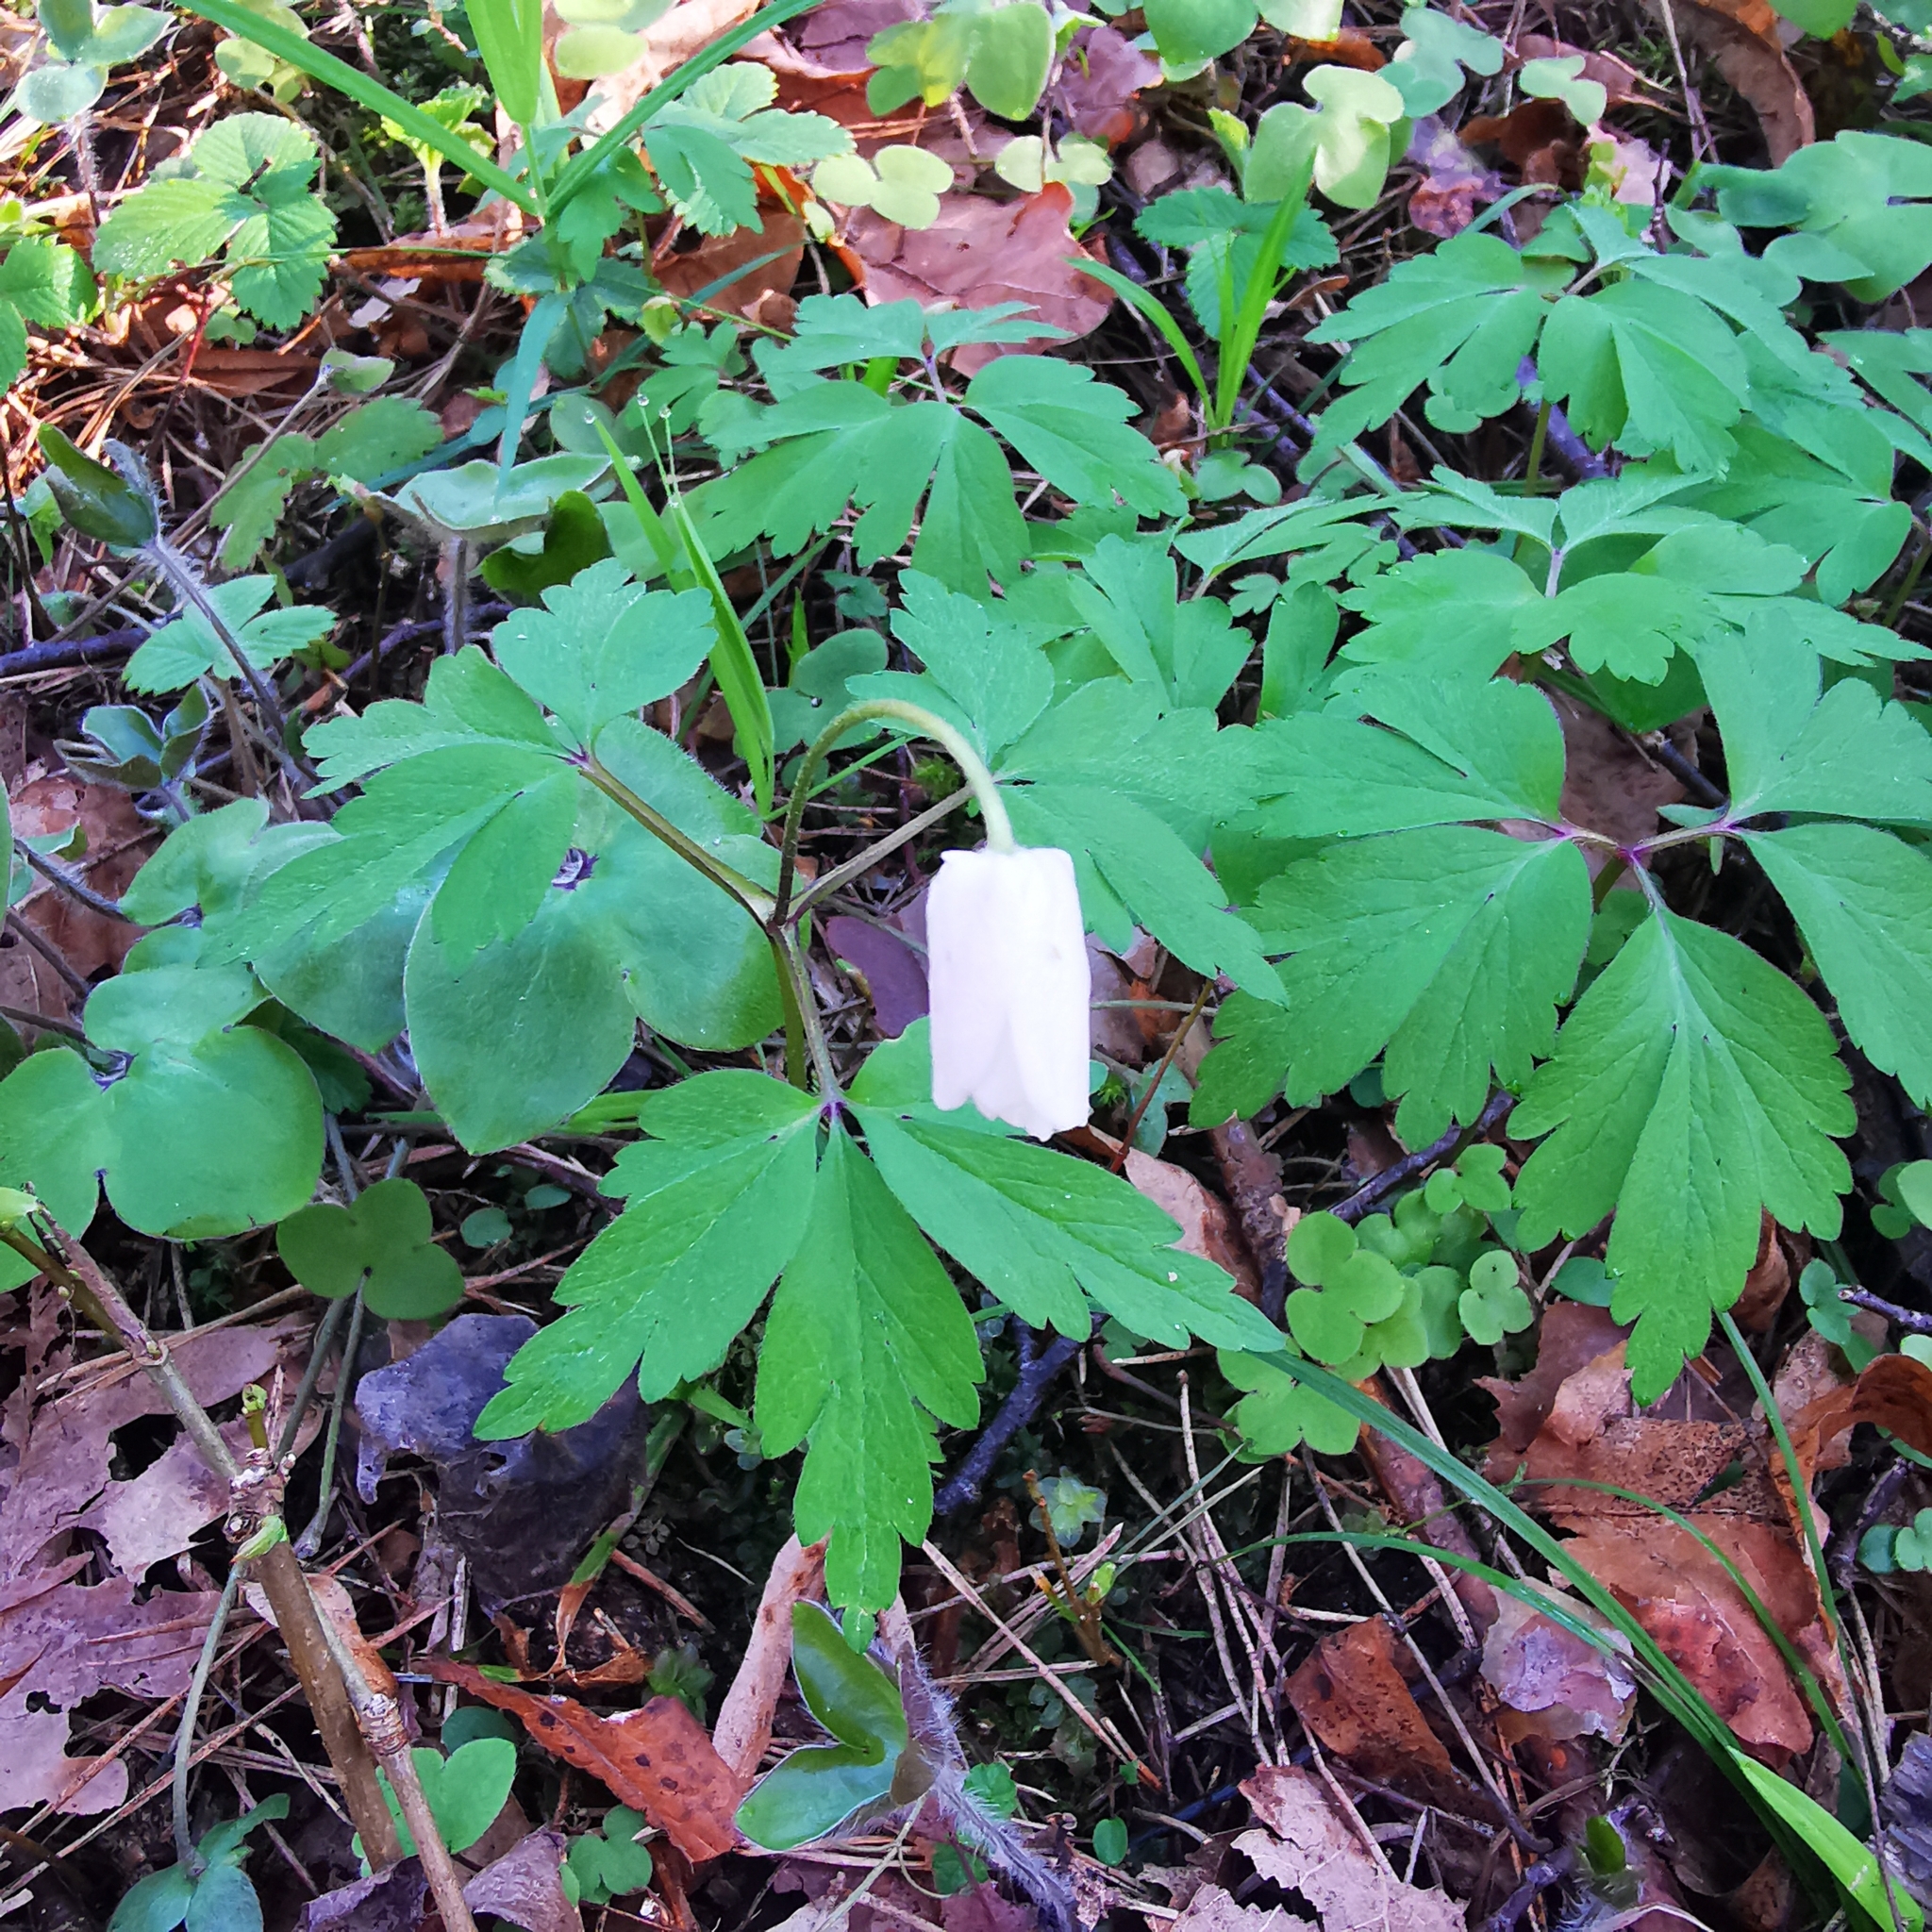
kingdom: Plantae
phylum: Tracheophyta
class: Magnoliopsida
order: Ranunculales
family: Ranunculaceae
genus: Anemone
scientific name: Anemone nemorosa
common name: Wood anemone
